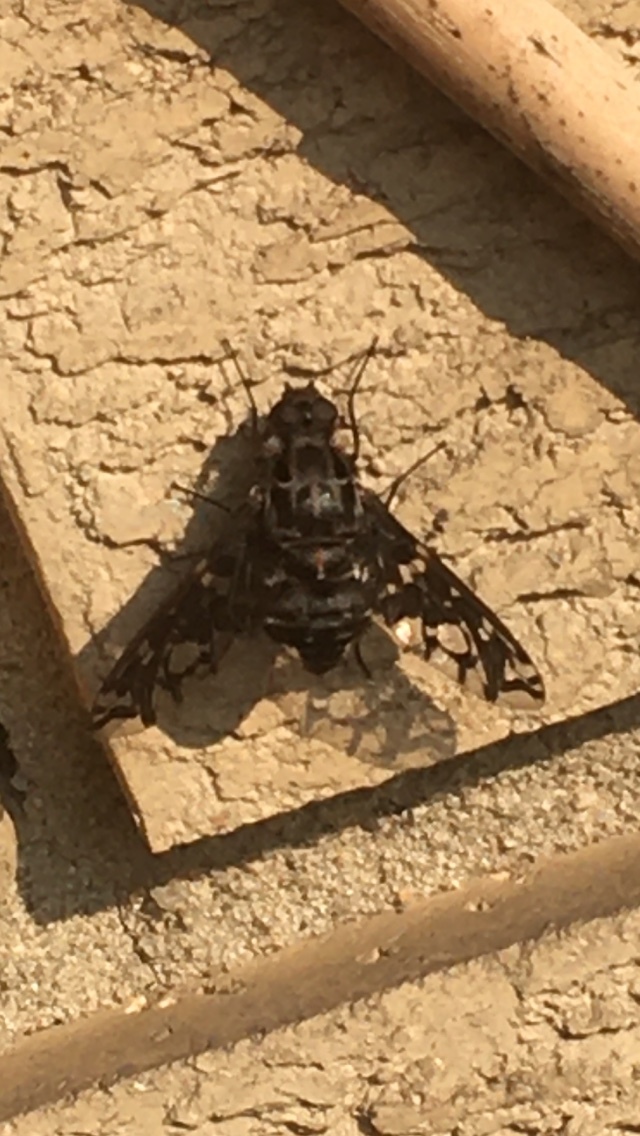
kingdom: Animalia
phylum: Arthropoda
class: Insecta
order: Diptera
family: Bombyliidae
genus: Xenox
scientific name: Xenox tigrinus
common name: Tiger bee fly
